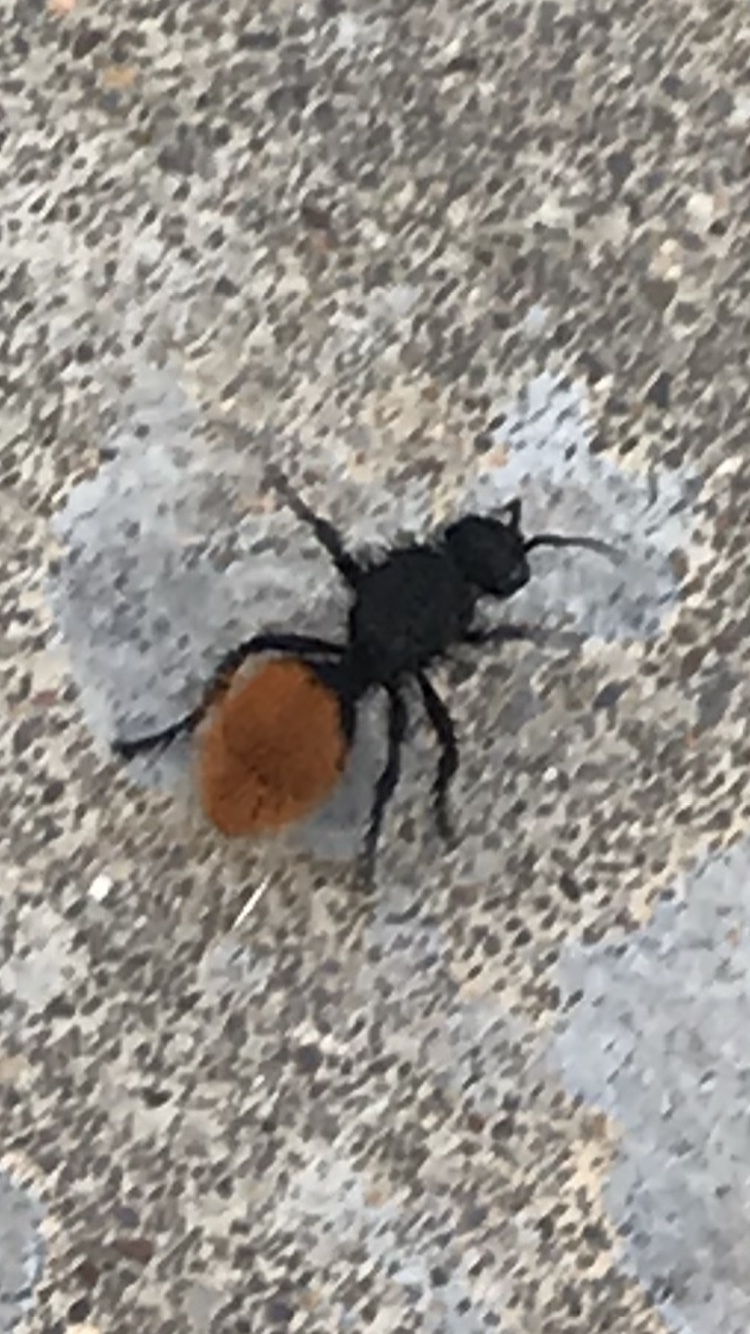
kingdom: Animalia
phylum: Arthropoda
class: Insecta
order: Hymenoptera
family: Mutillidae
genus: Dasymutilla
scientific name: Dasymutilla vestita
